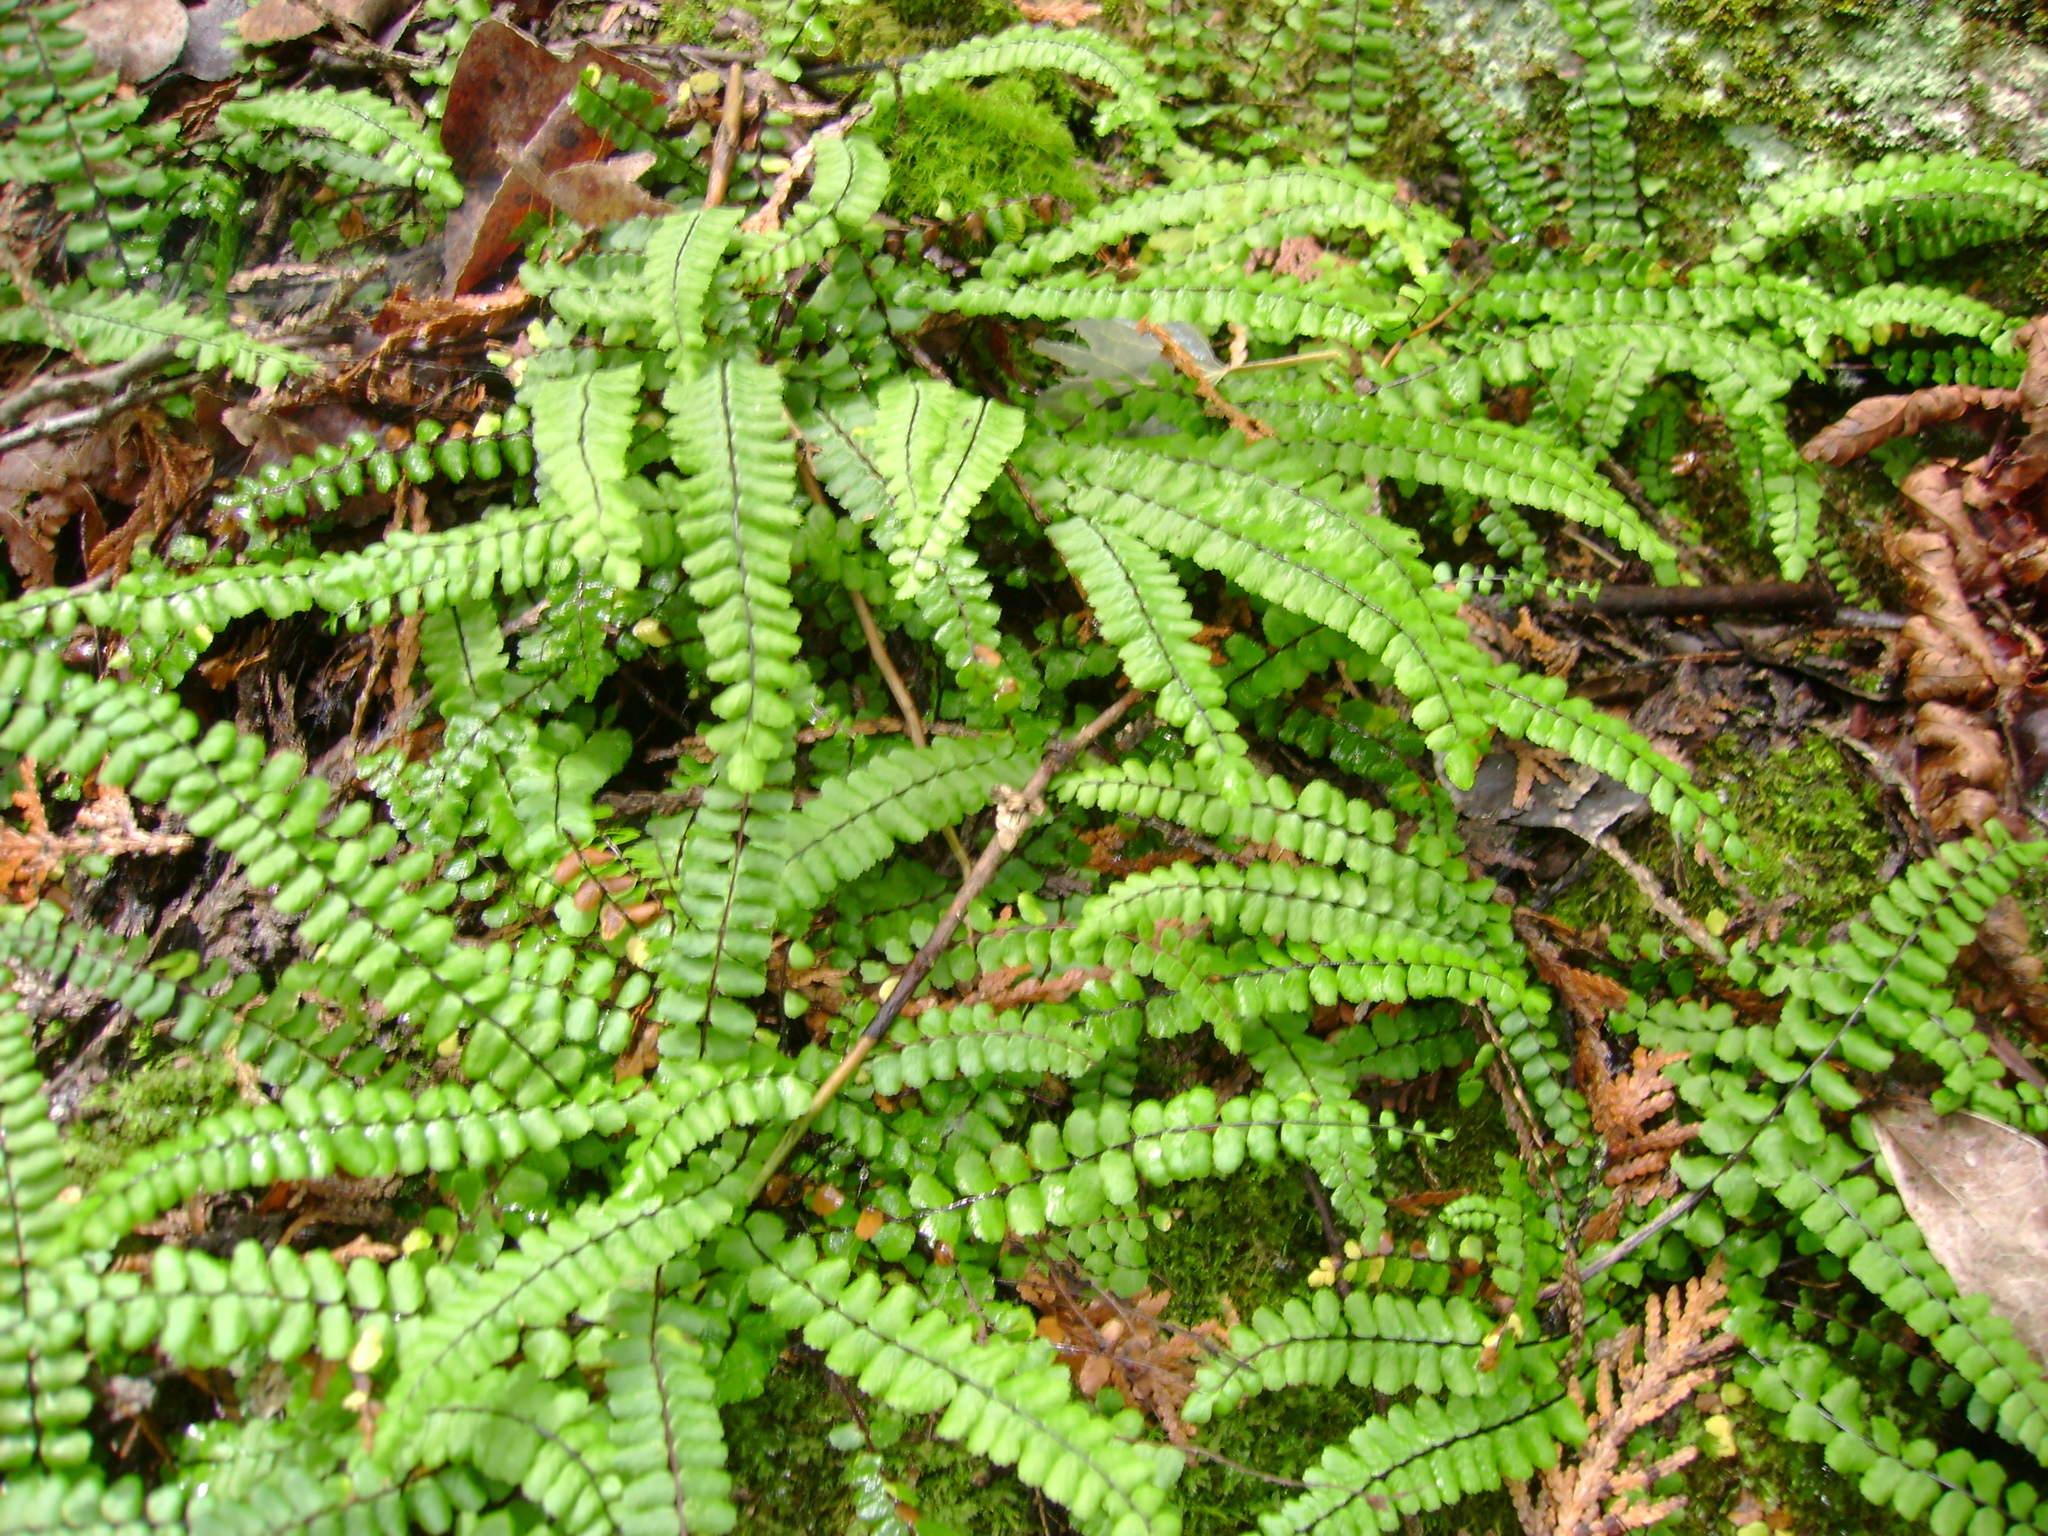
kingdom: Plantae
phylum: Tracheophyta
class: Polypodiopsida
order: Polypodiales
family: Aspleniaceae
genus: Asplenium
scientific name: Asplenium trichomanes
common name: Maidenhair spleenwort
